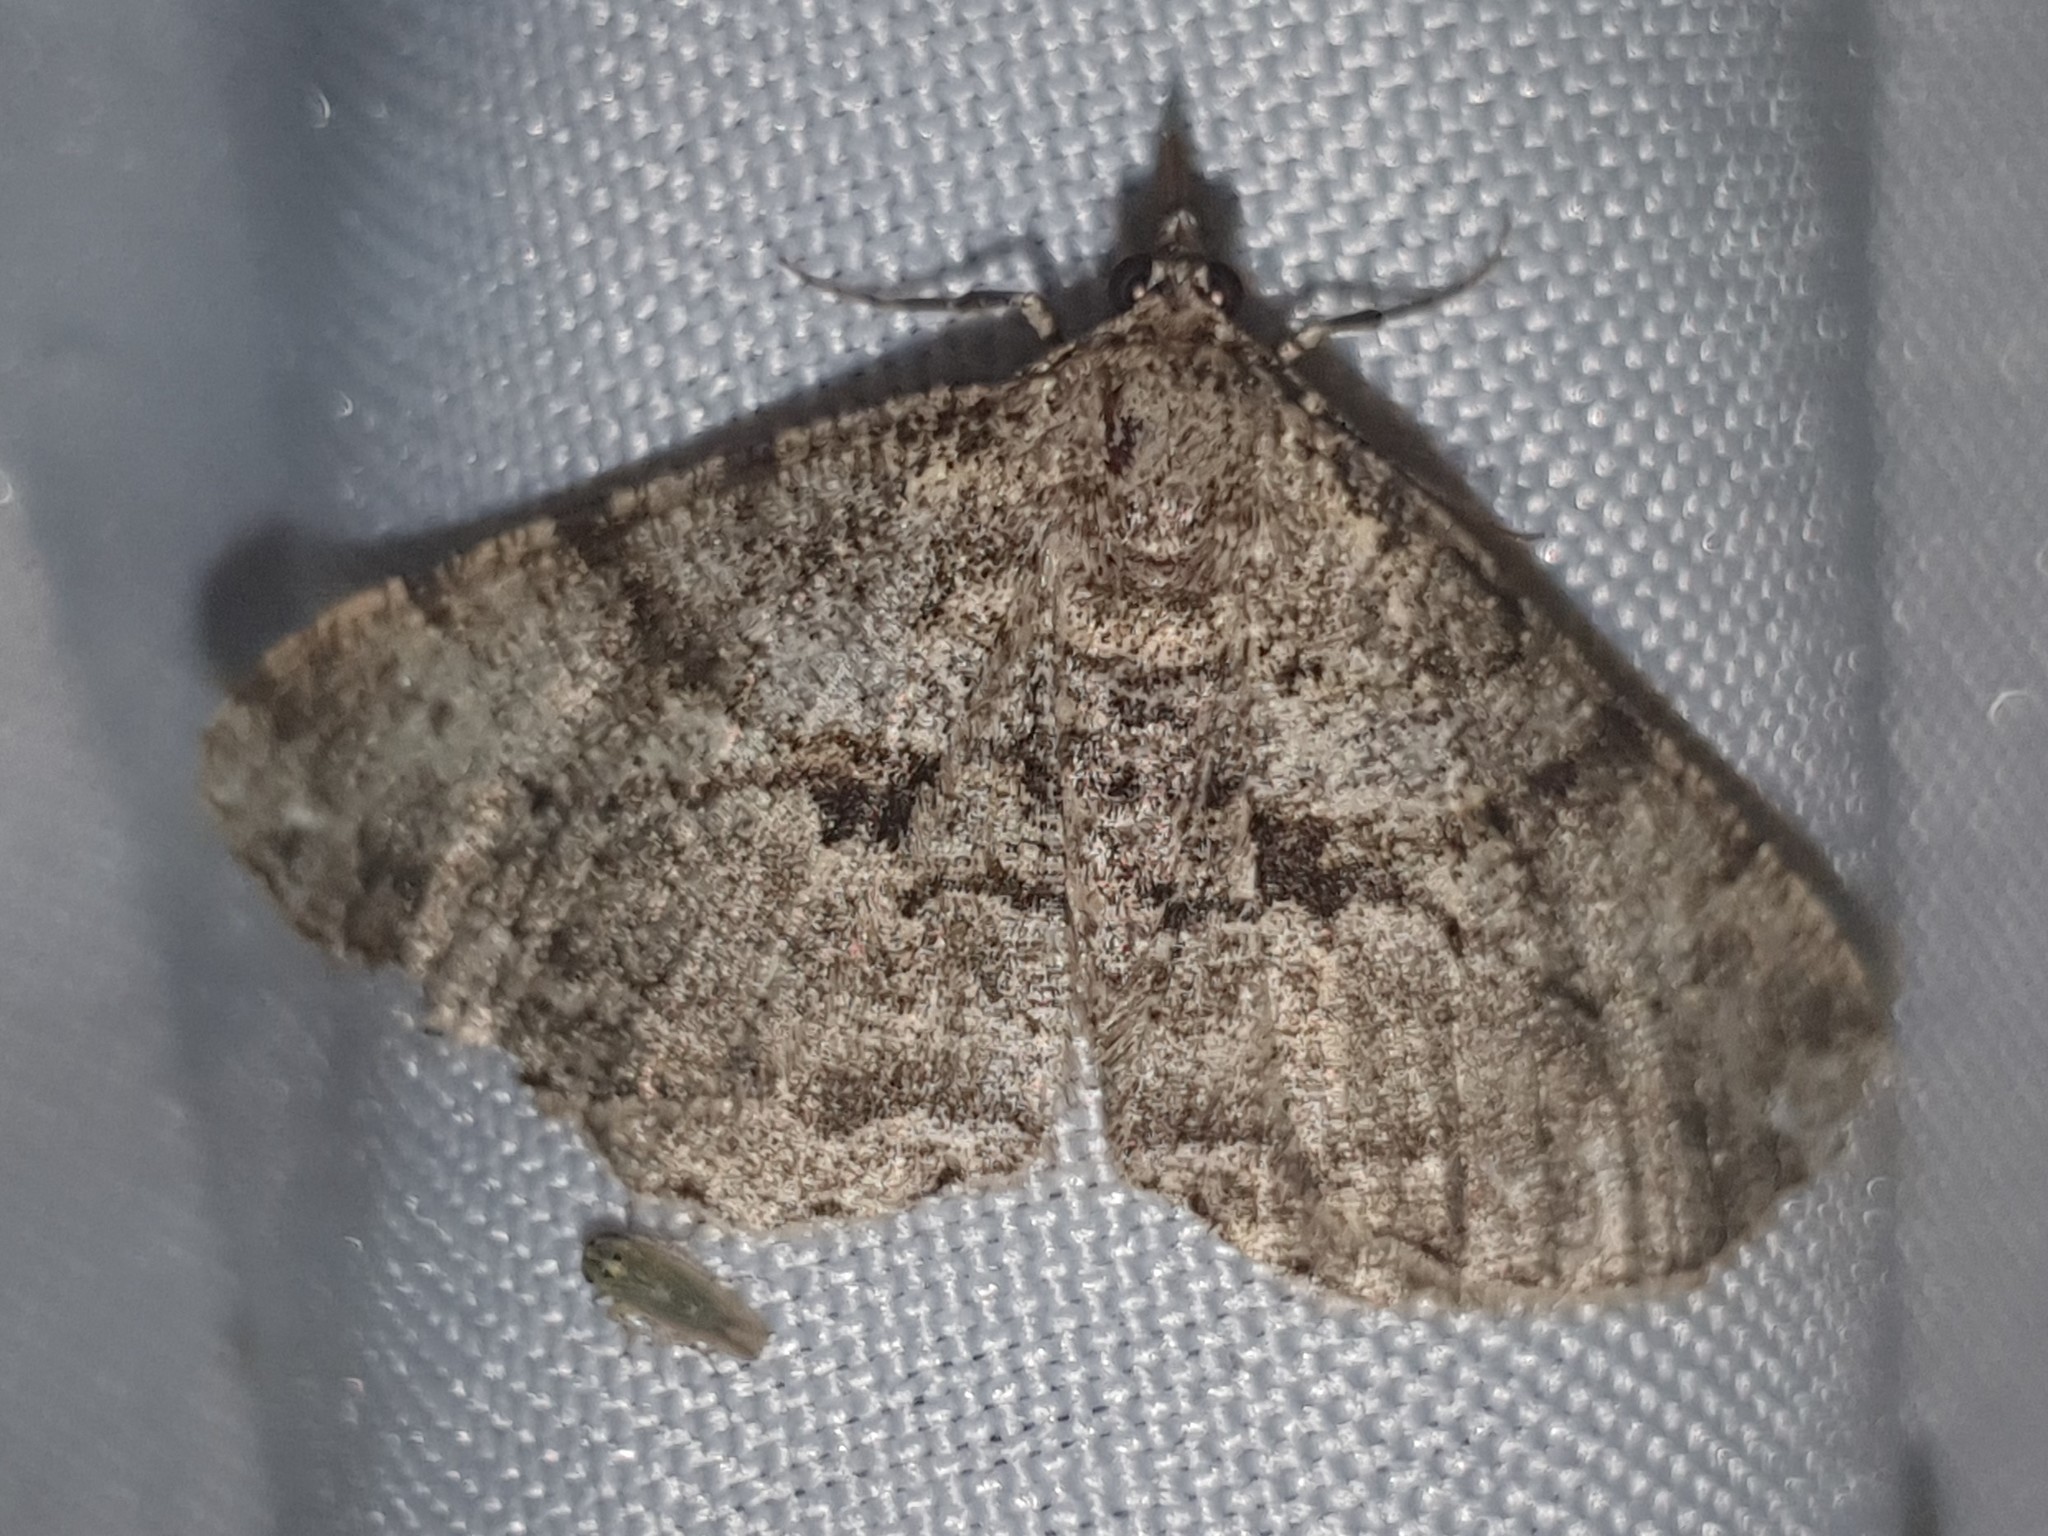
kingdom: Animalia
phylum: Arthropoda
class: Insecta
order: Lepidoptera
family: Geometridae
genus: Peribatodes
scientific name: Peribatodes rhomboidaria
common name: Willow beauty
